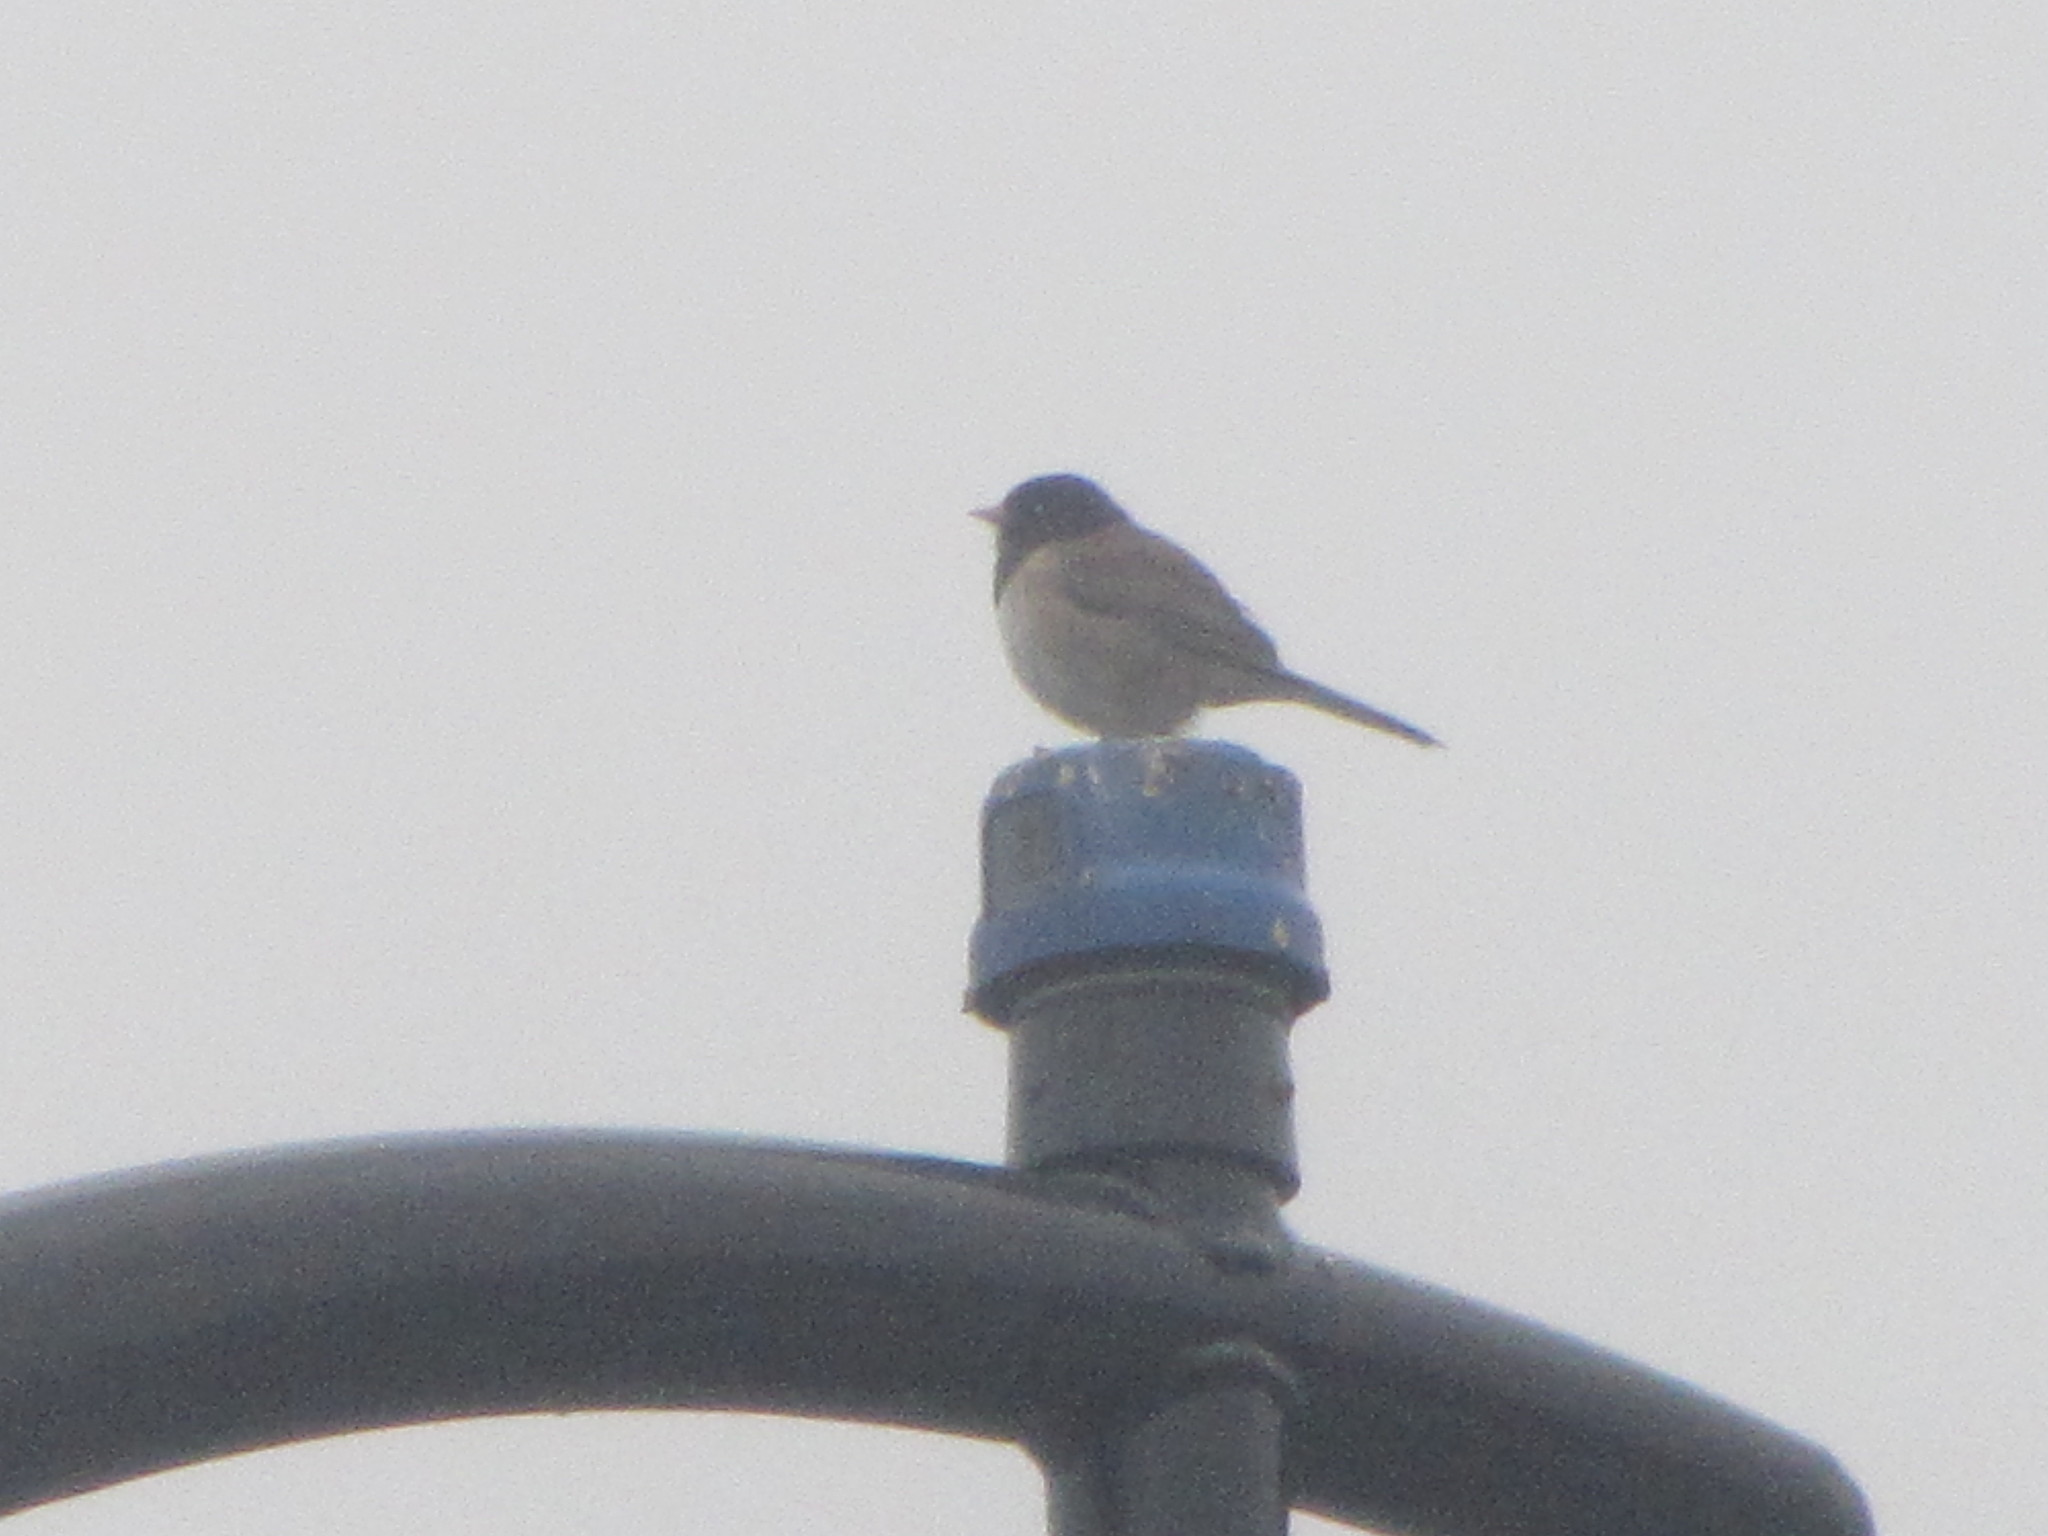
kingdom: Animalia
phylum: Chordata
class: Aves
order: Passeriformes
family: Passerellidae
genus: Junco
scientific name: Junco hyemalis
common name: Dark-eyed junco
